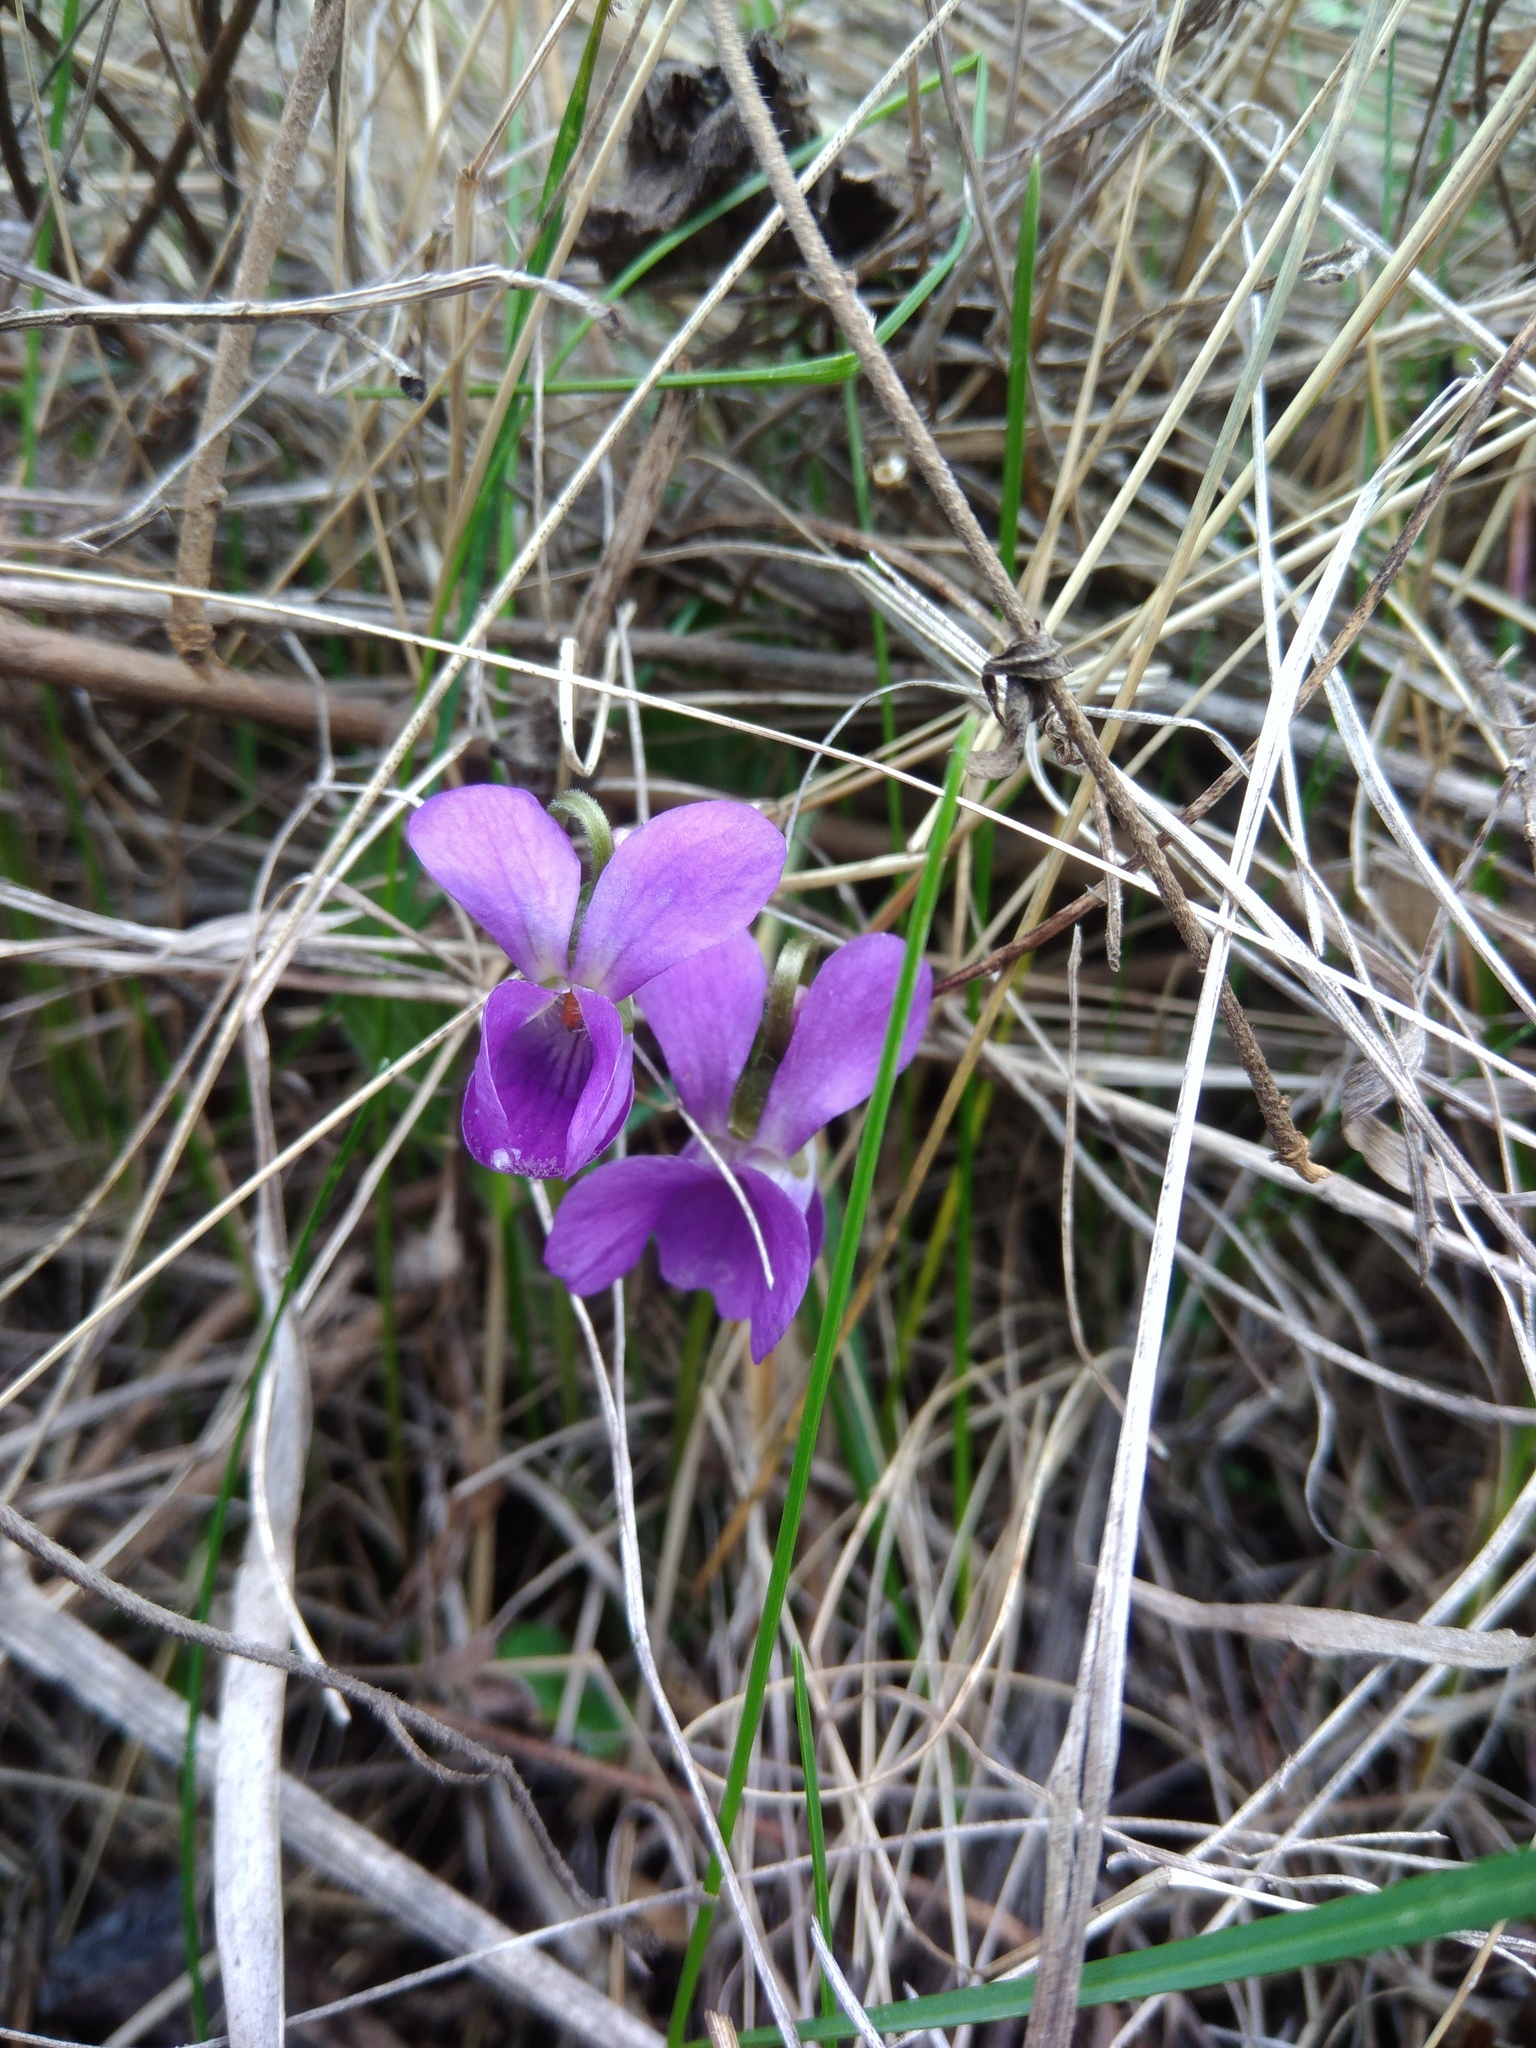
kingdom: Plantae
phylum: Tracheophyta
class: Magnoliopsida
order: Malpighiales
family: Violaceae
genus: Viola
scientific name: Viola ambigua
